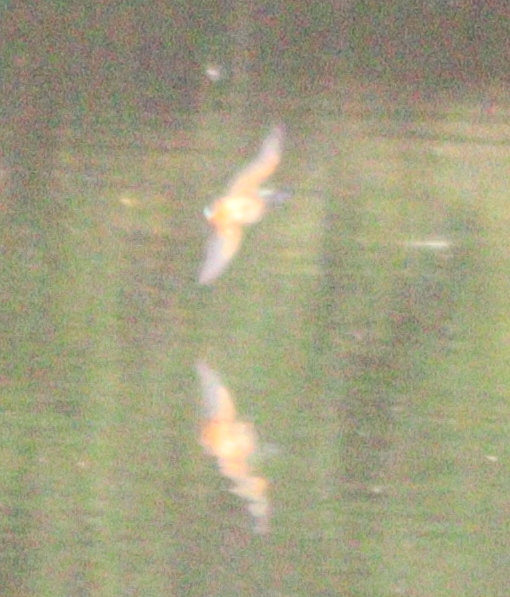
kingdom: Animalia
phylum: Chordata
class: Aves
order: Coraciiformes
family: Alcedinidae
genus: Alcedo
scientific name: Alcedo atthis
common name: Common kingfisher
